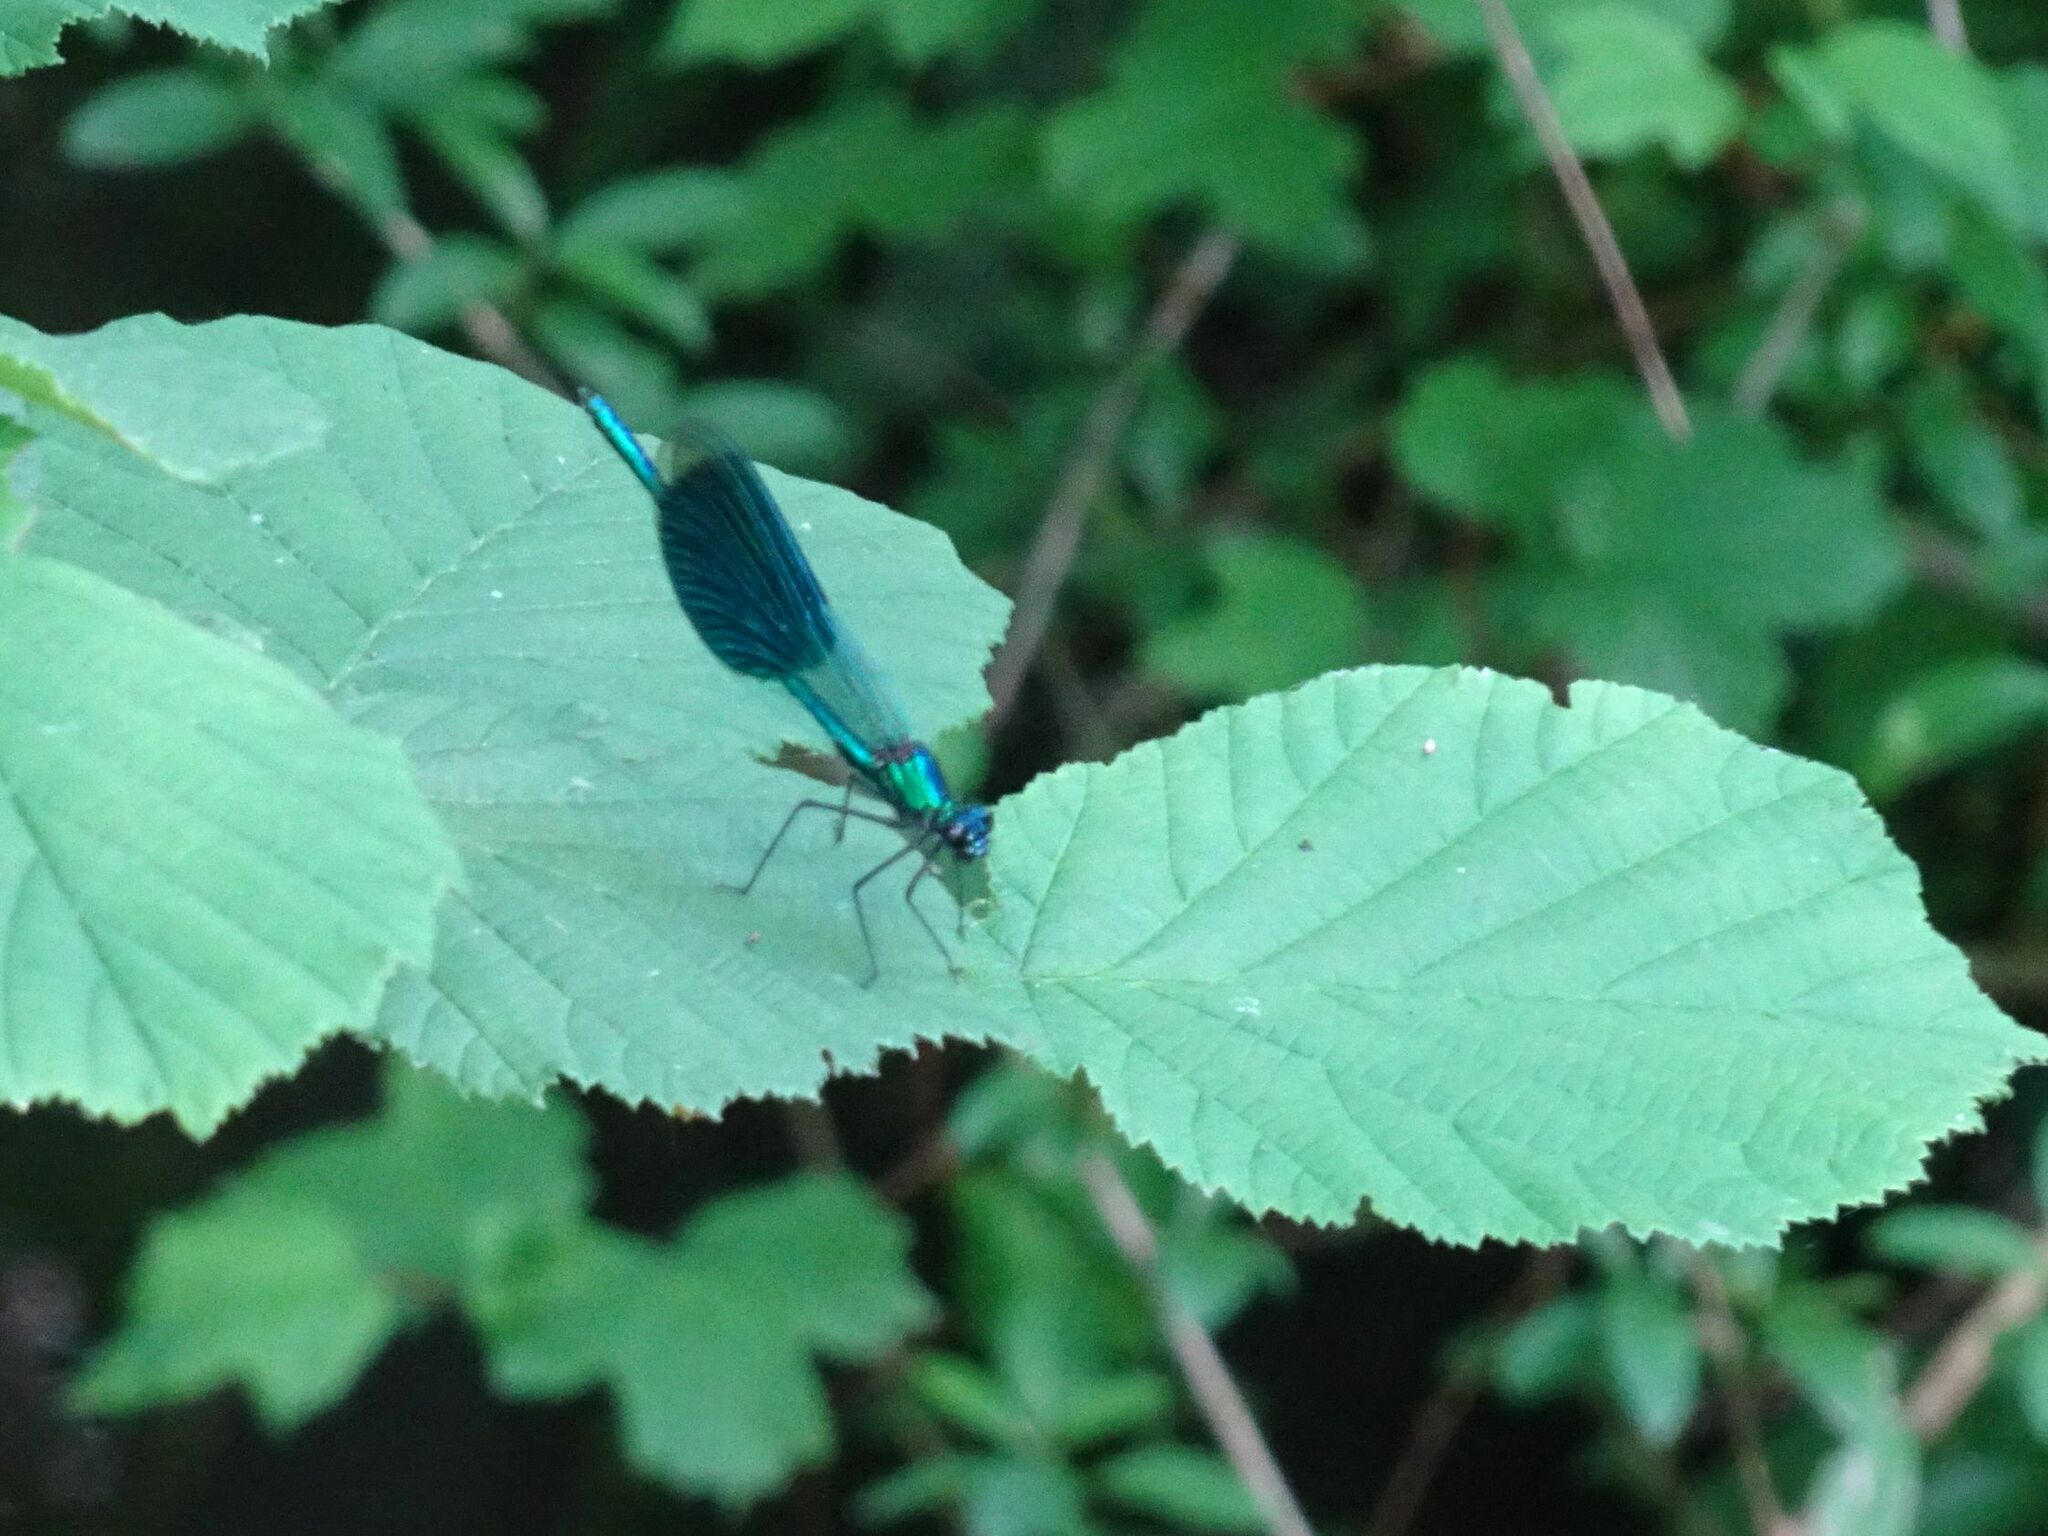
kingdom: Animalia
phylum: Arthropoda
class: Insecta
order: Odonata
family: Calopterygidae
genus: Calopteryx
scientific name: Calopteryx splendens
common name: Banded demoiselle
